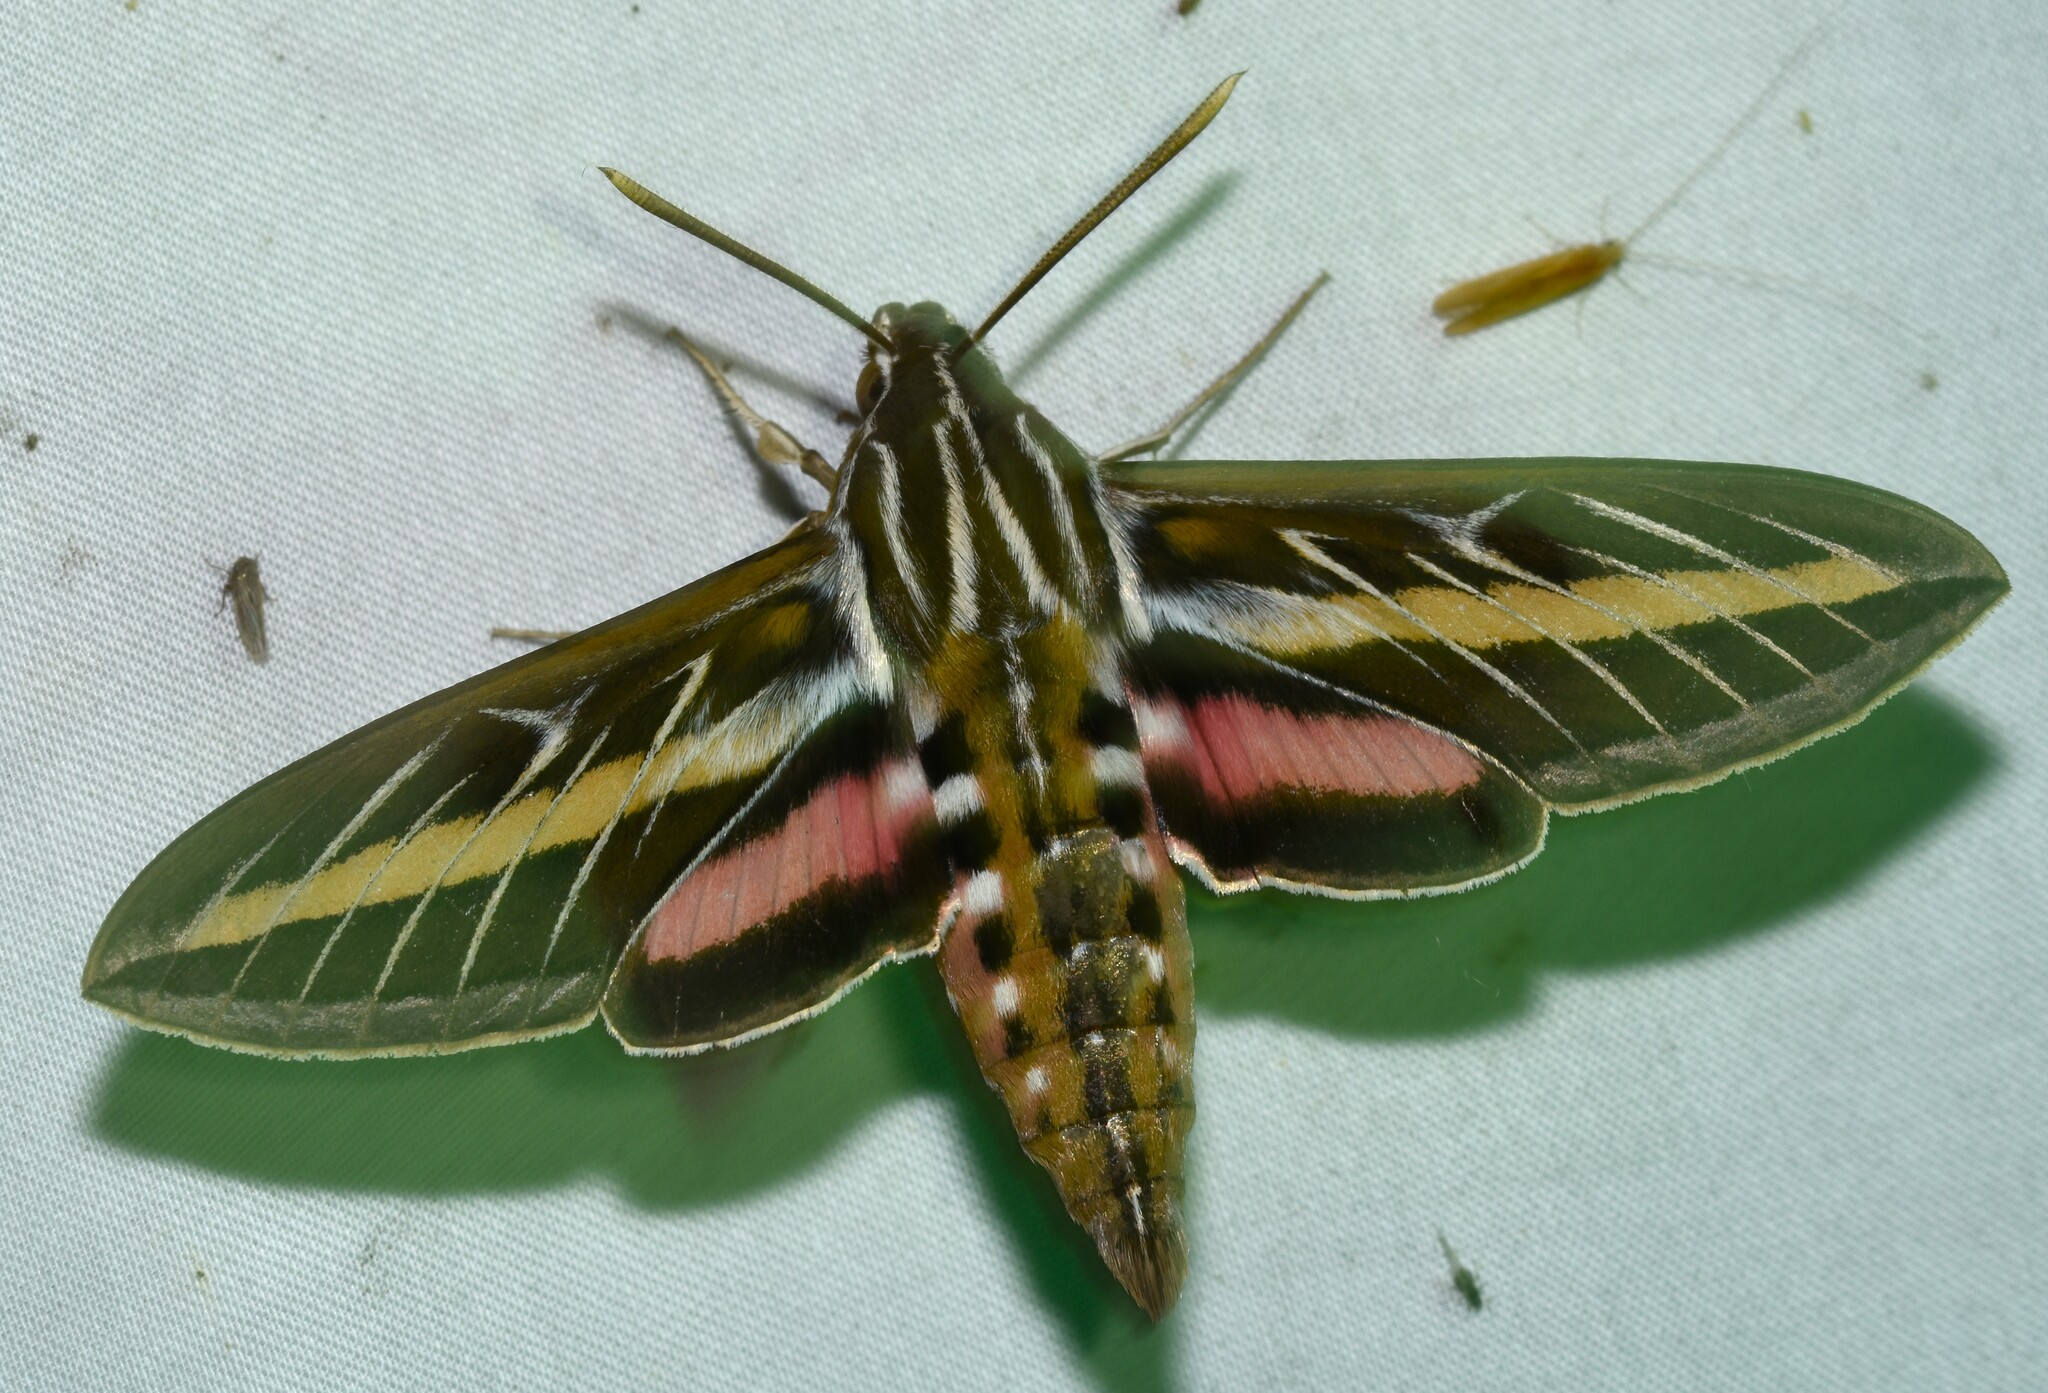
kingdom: Animalia
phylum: Arthropoda
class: Insecta
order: Lepidoptera
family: Sphingidae
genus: Hyles
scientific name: Hyles lineata
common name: White-lined sphinx
